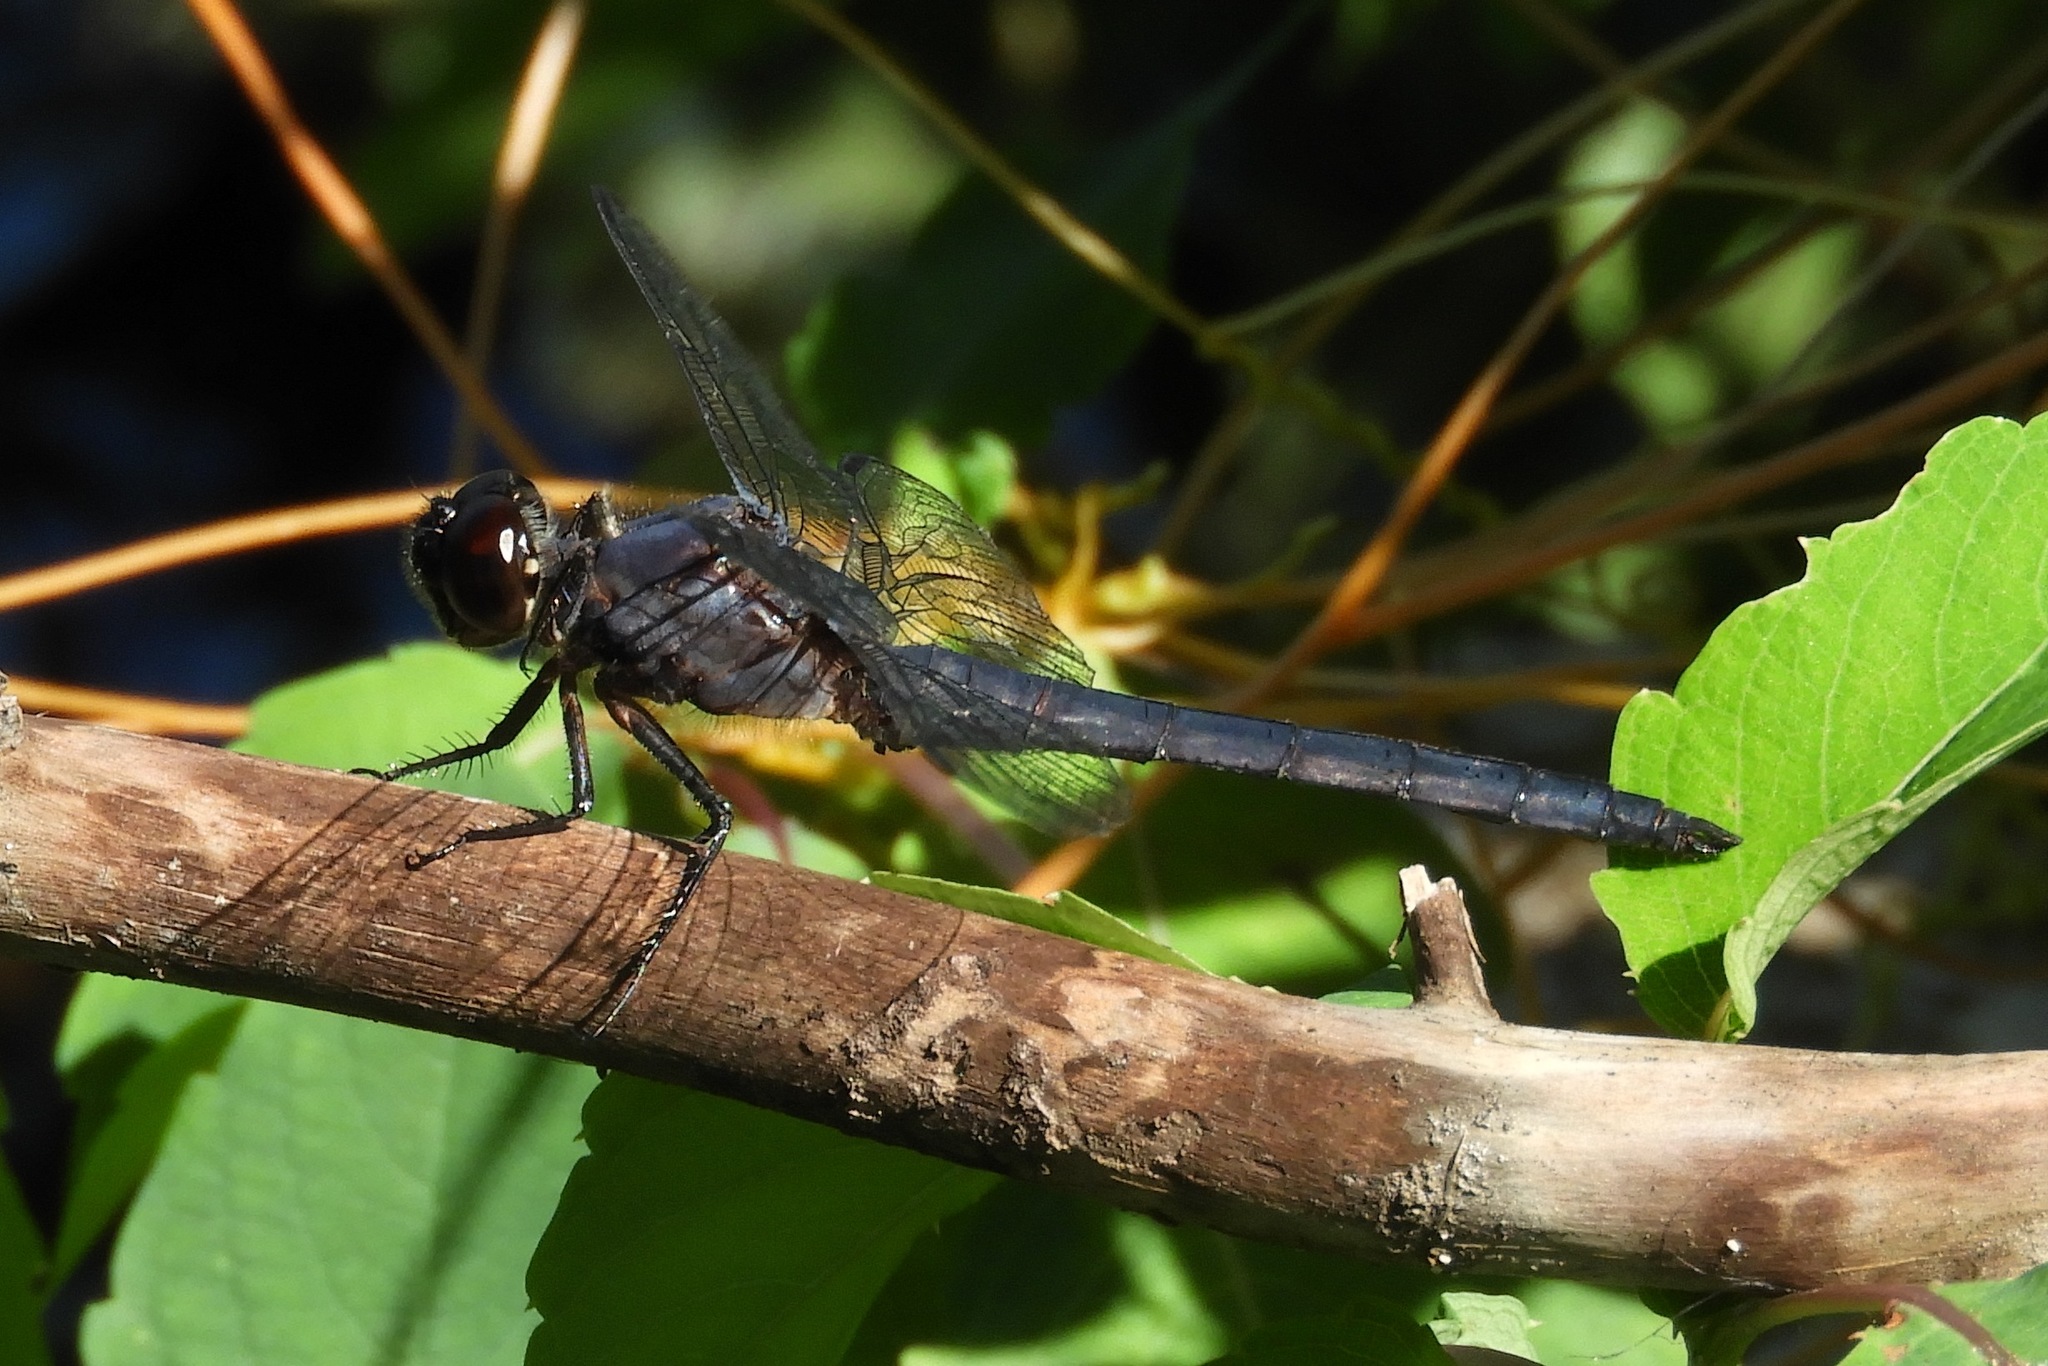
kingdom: Animalia
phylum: Arthropoda
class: Insecta
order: Odonata
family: Libellulidae
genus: Libellula
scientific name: Libellula incesta
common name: Slaty skimmer
